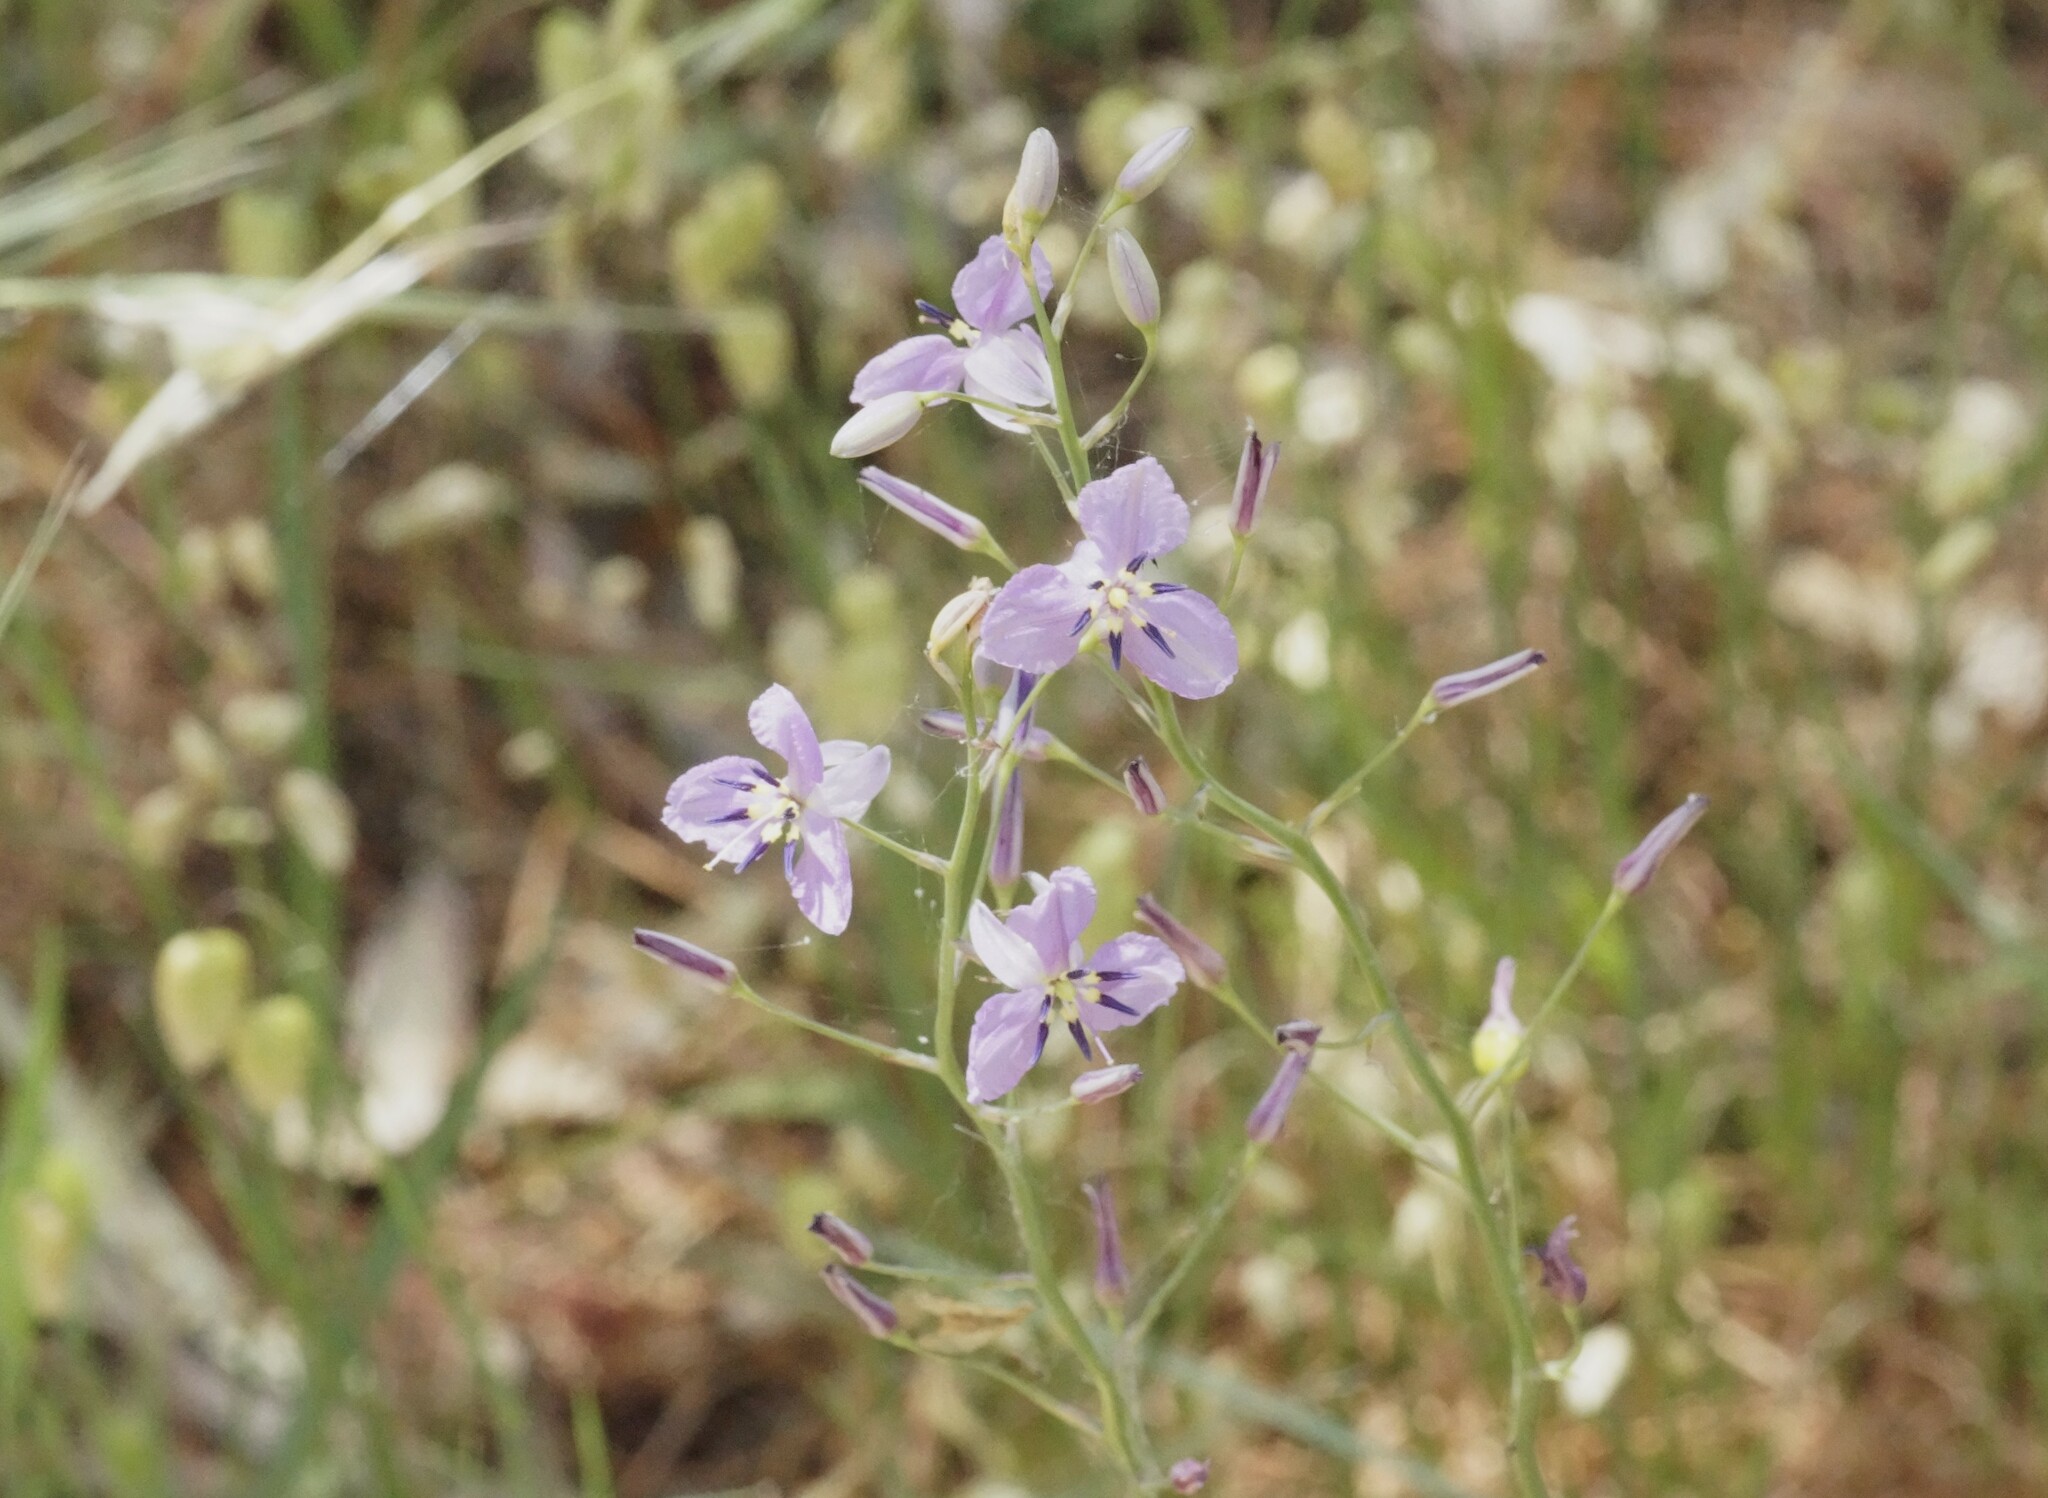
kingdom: Plantae
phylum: Tracheophyta
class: Liliopsida
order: Asparagales
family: Asparagaceae
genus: Arthropodium
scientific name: Arthropodium strictum
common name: Chocolate-lily
